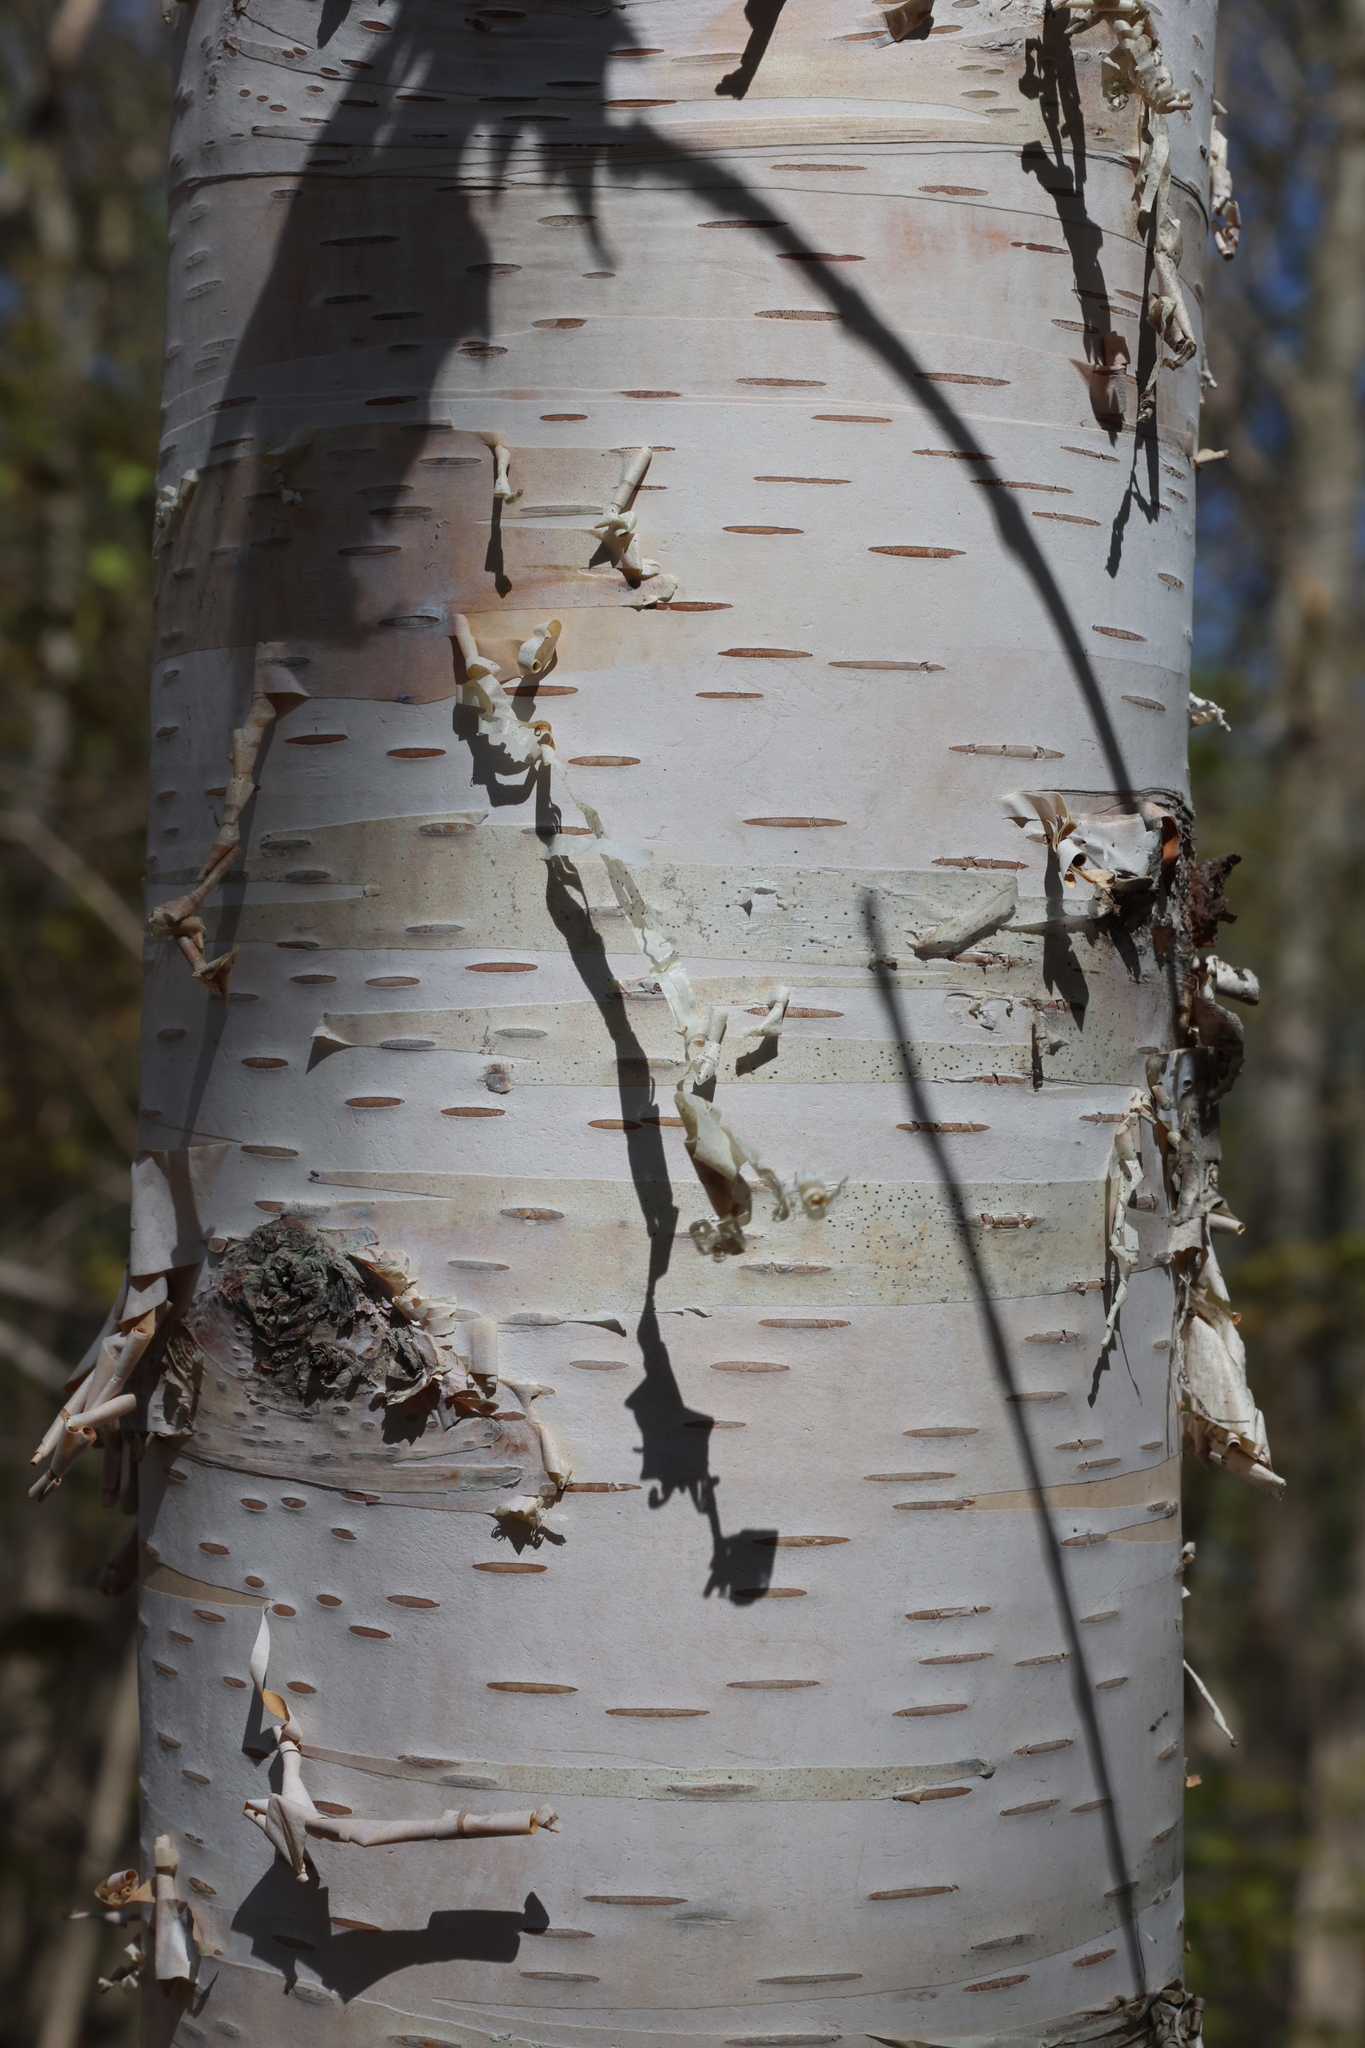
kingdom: Plantae
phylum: Tracheophyta
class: Magnoliopsida
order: Fagales
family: Betulaceae
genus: Betula
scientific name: Betula papyrifera
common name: Paper birch
